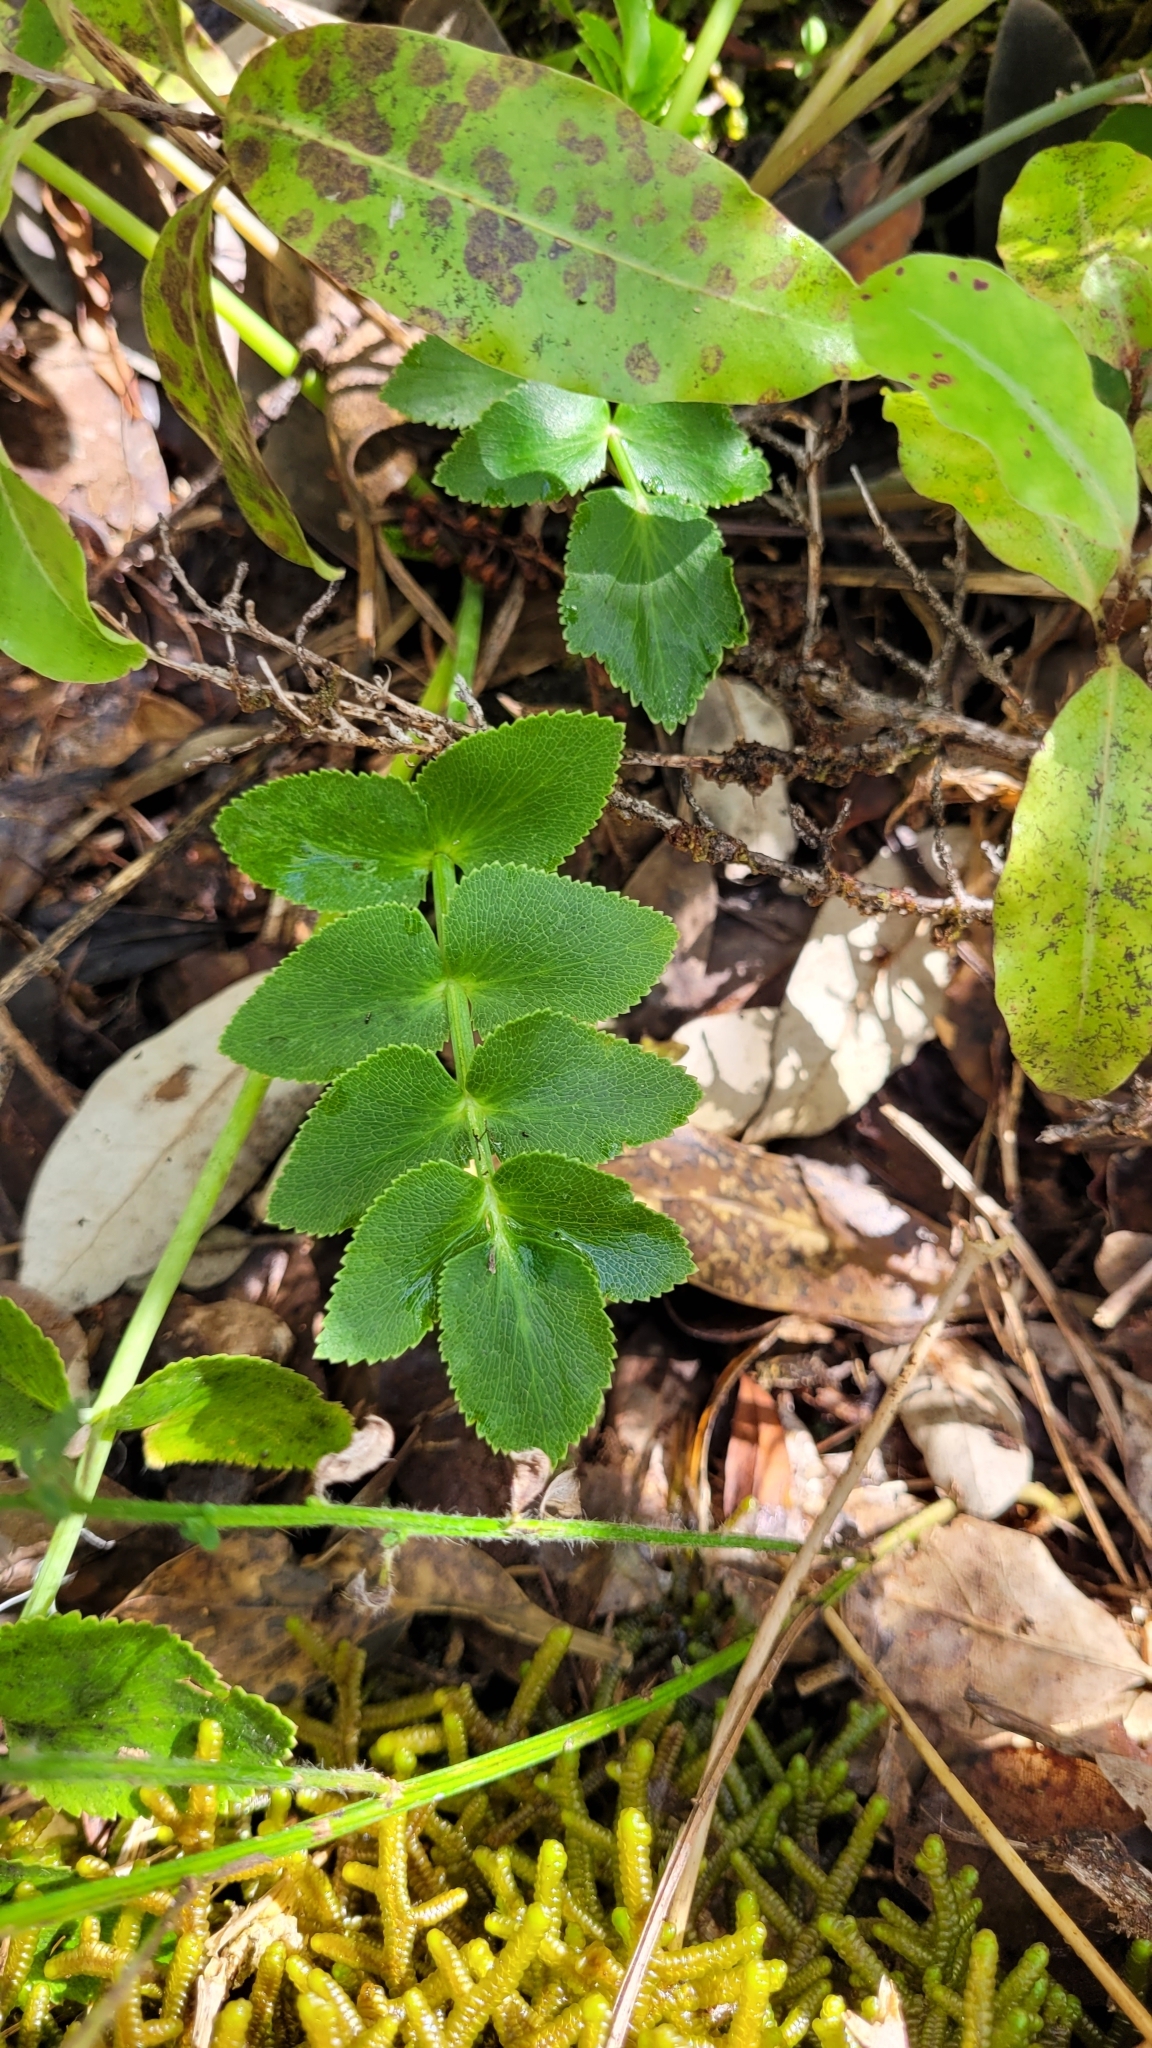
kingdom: Plantae
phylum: Tracheophyta
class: Magnoliopsida
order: Apiales
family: Apiaceae
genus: Gingidia
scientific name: Gingidia montana
